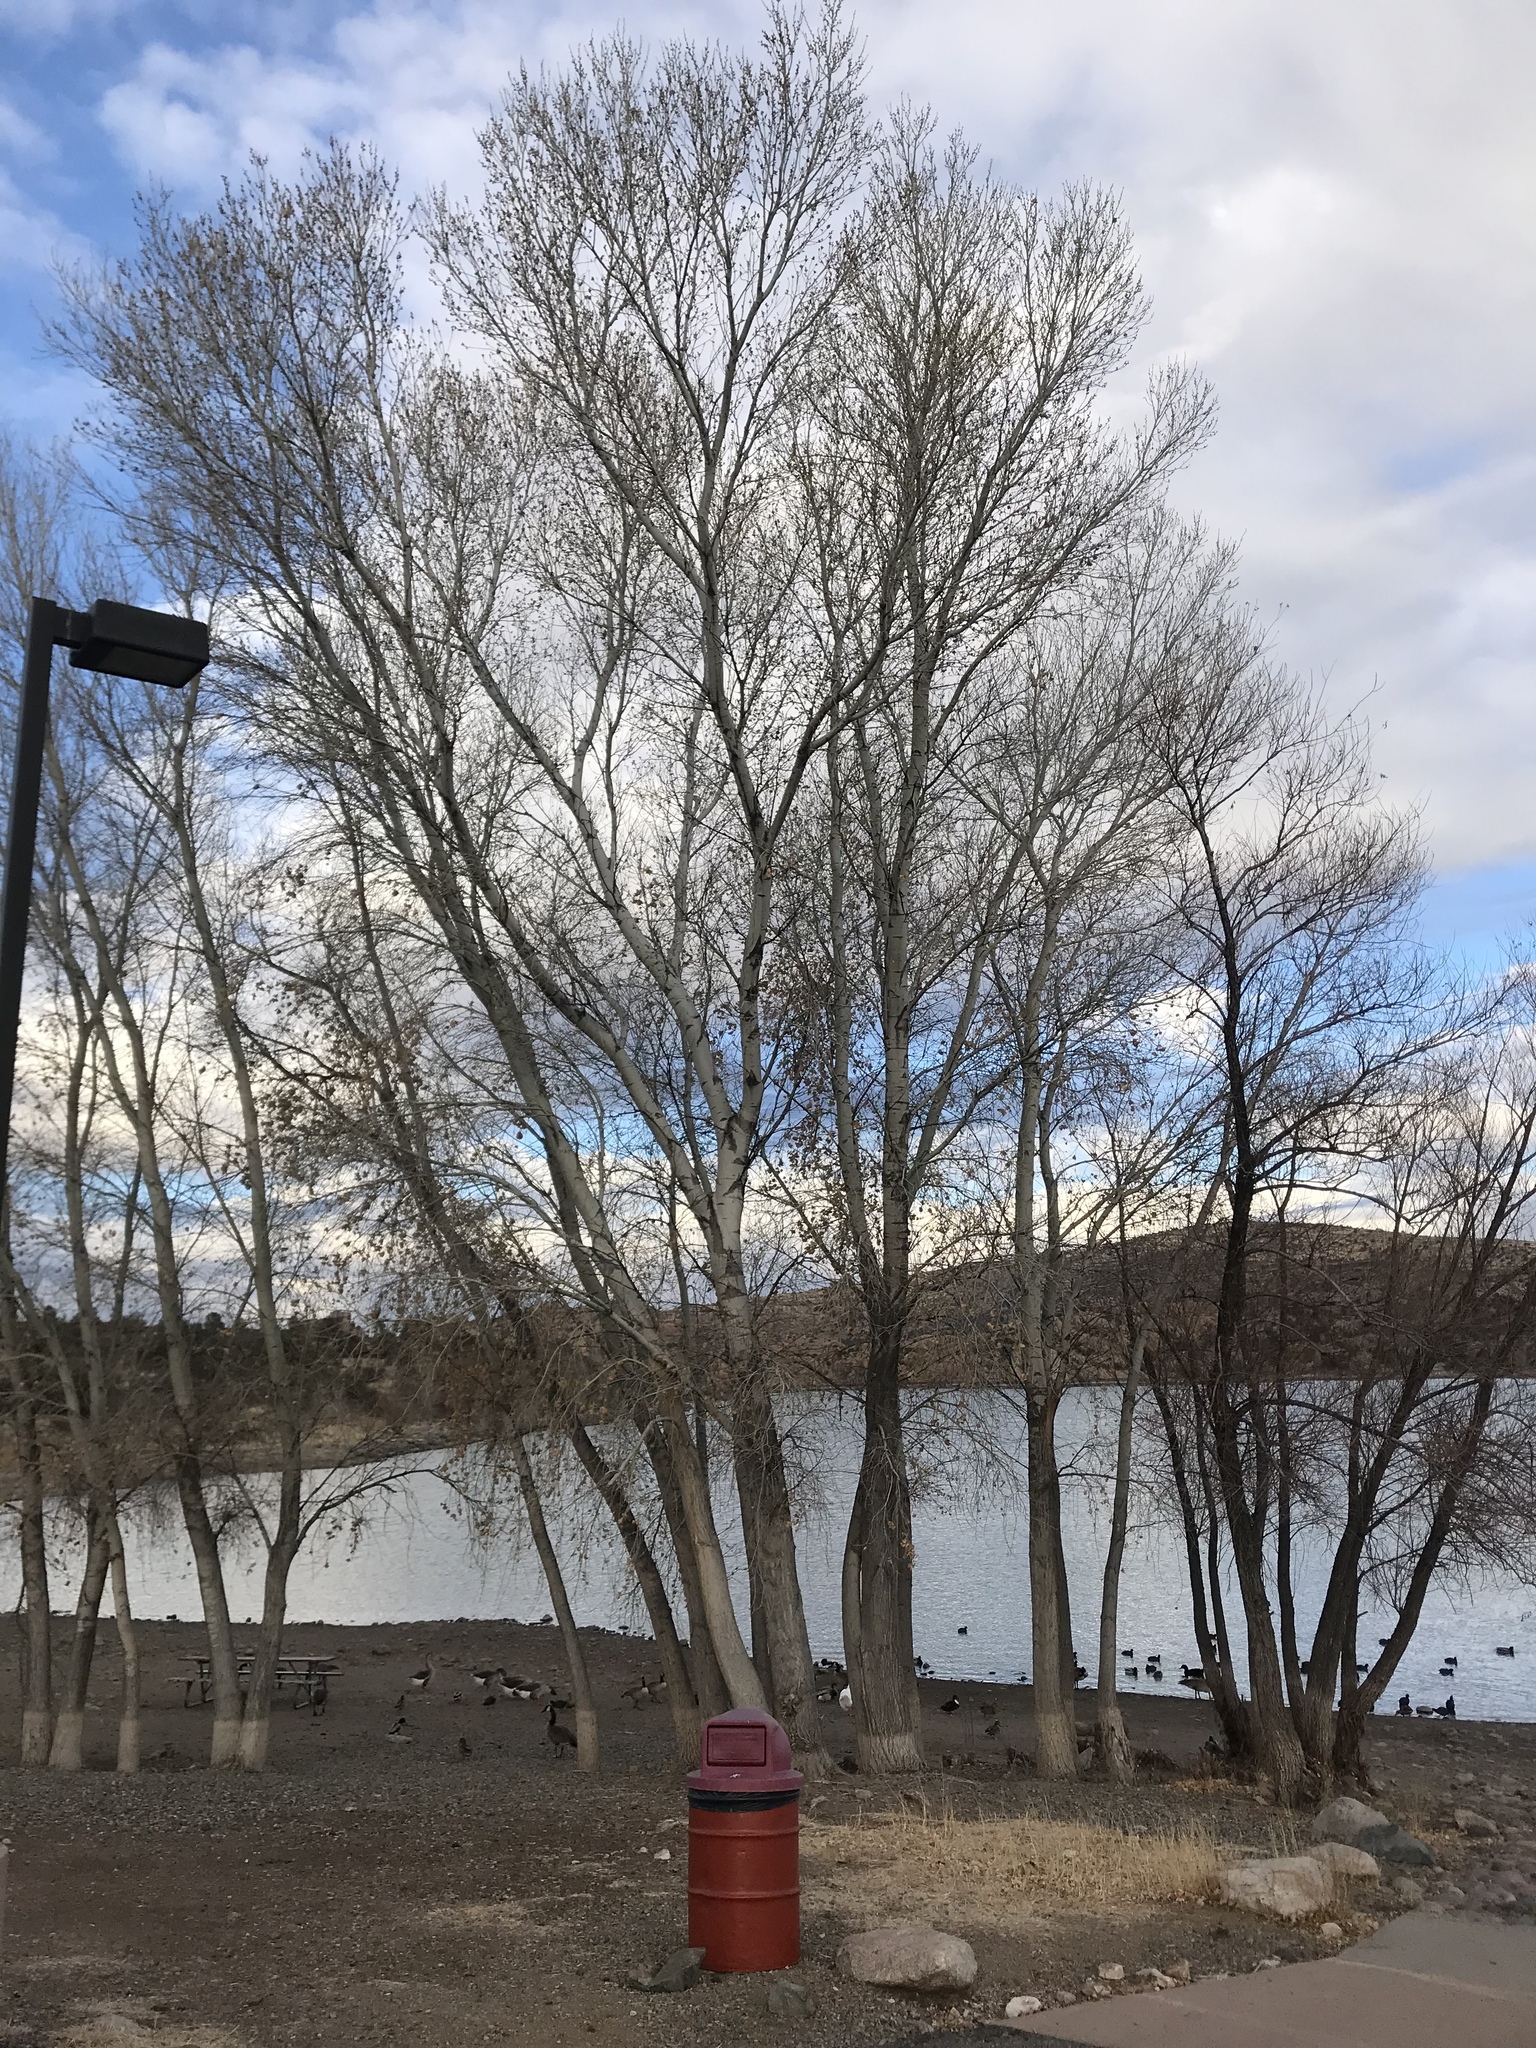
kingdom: Plantae
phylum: Tracheophyta
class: Magnoliopsida
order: Malpighiales
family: Salicaceae
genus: Populus
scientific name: Populus fremontii
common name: Fremont's cottonwood
